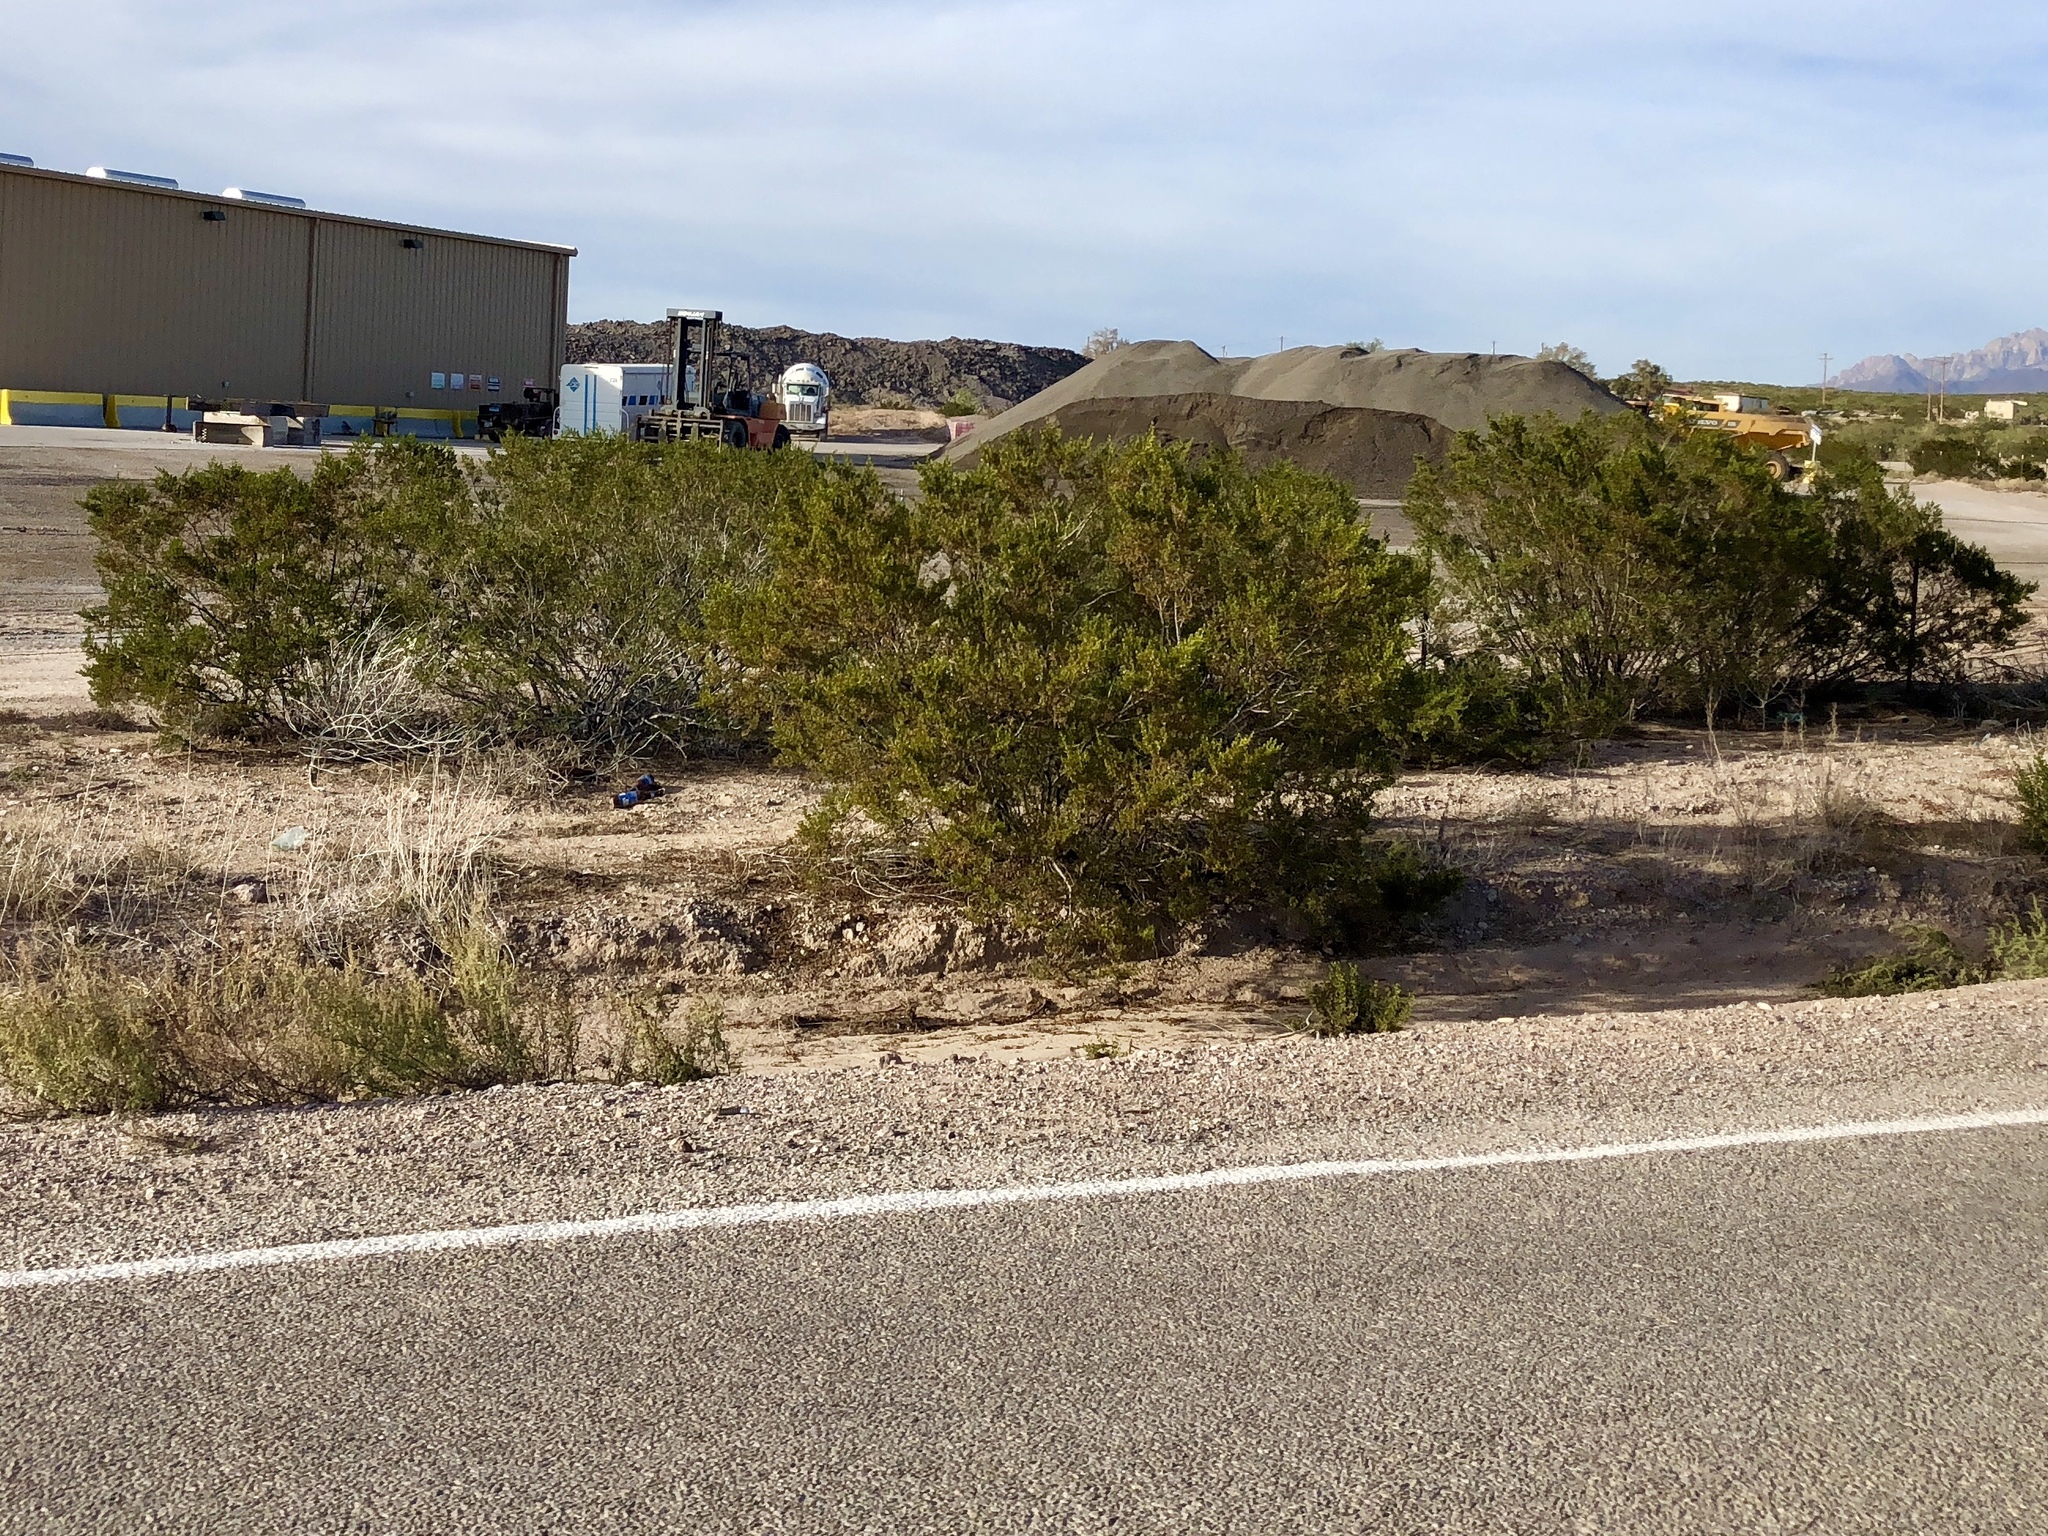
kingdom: Plantae
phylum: Tracheophyta
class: Magnoliopsida
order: Zygophyllales
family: Zygophyllaceae
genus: Larrea
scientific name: Larrea tridentata
